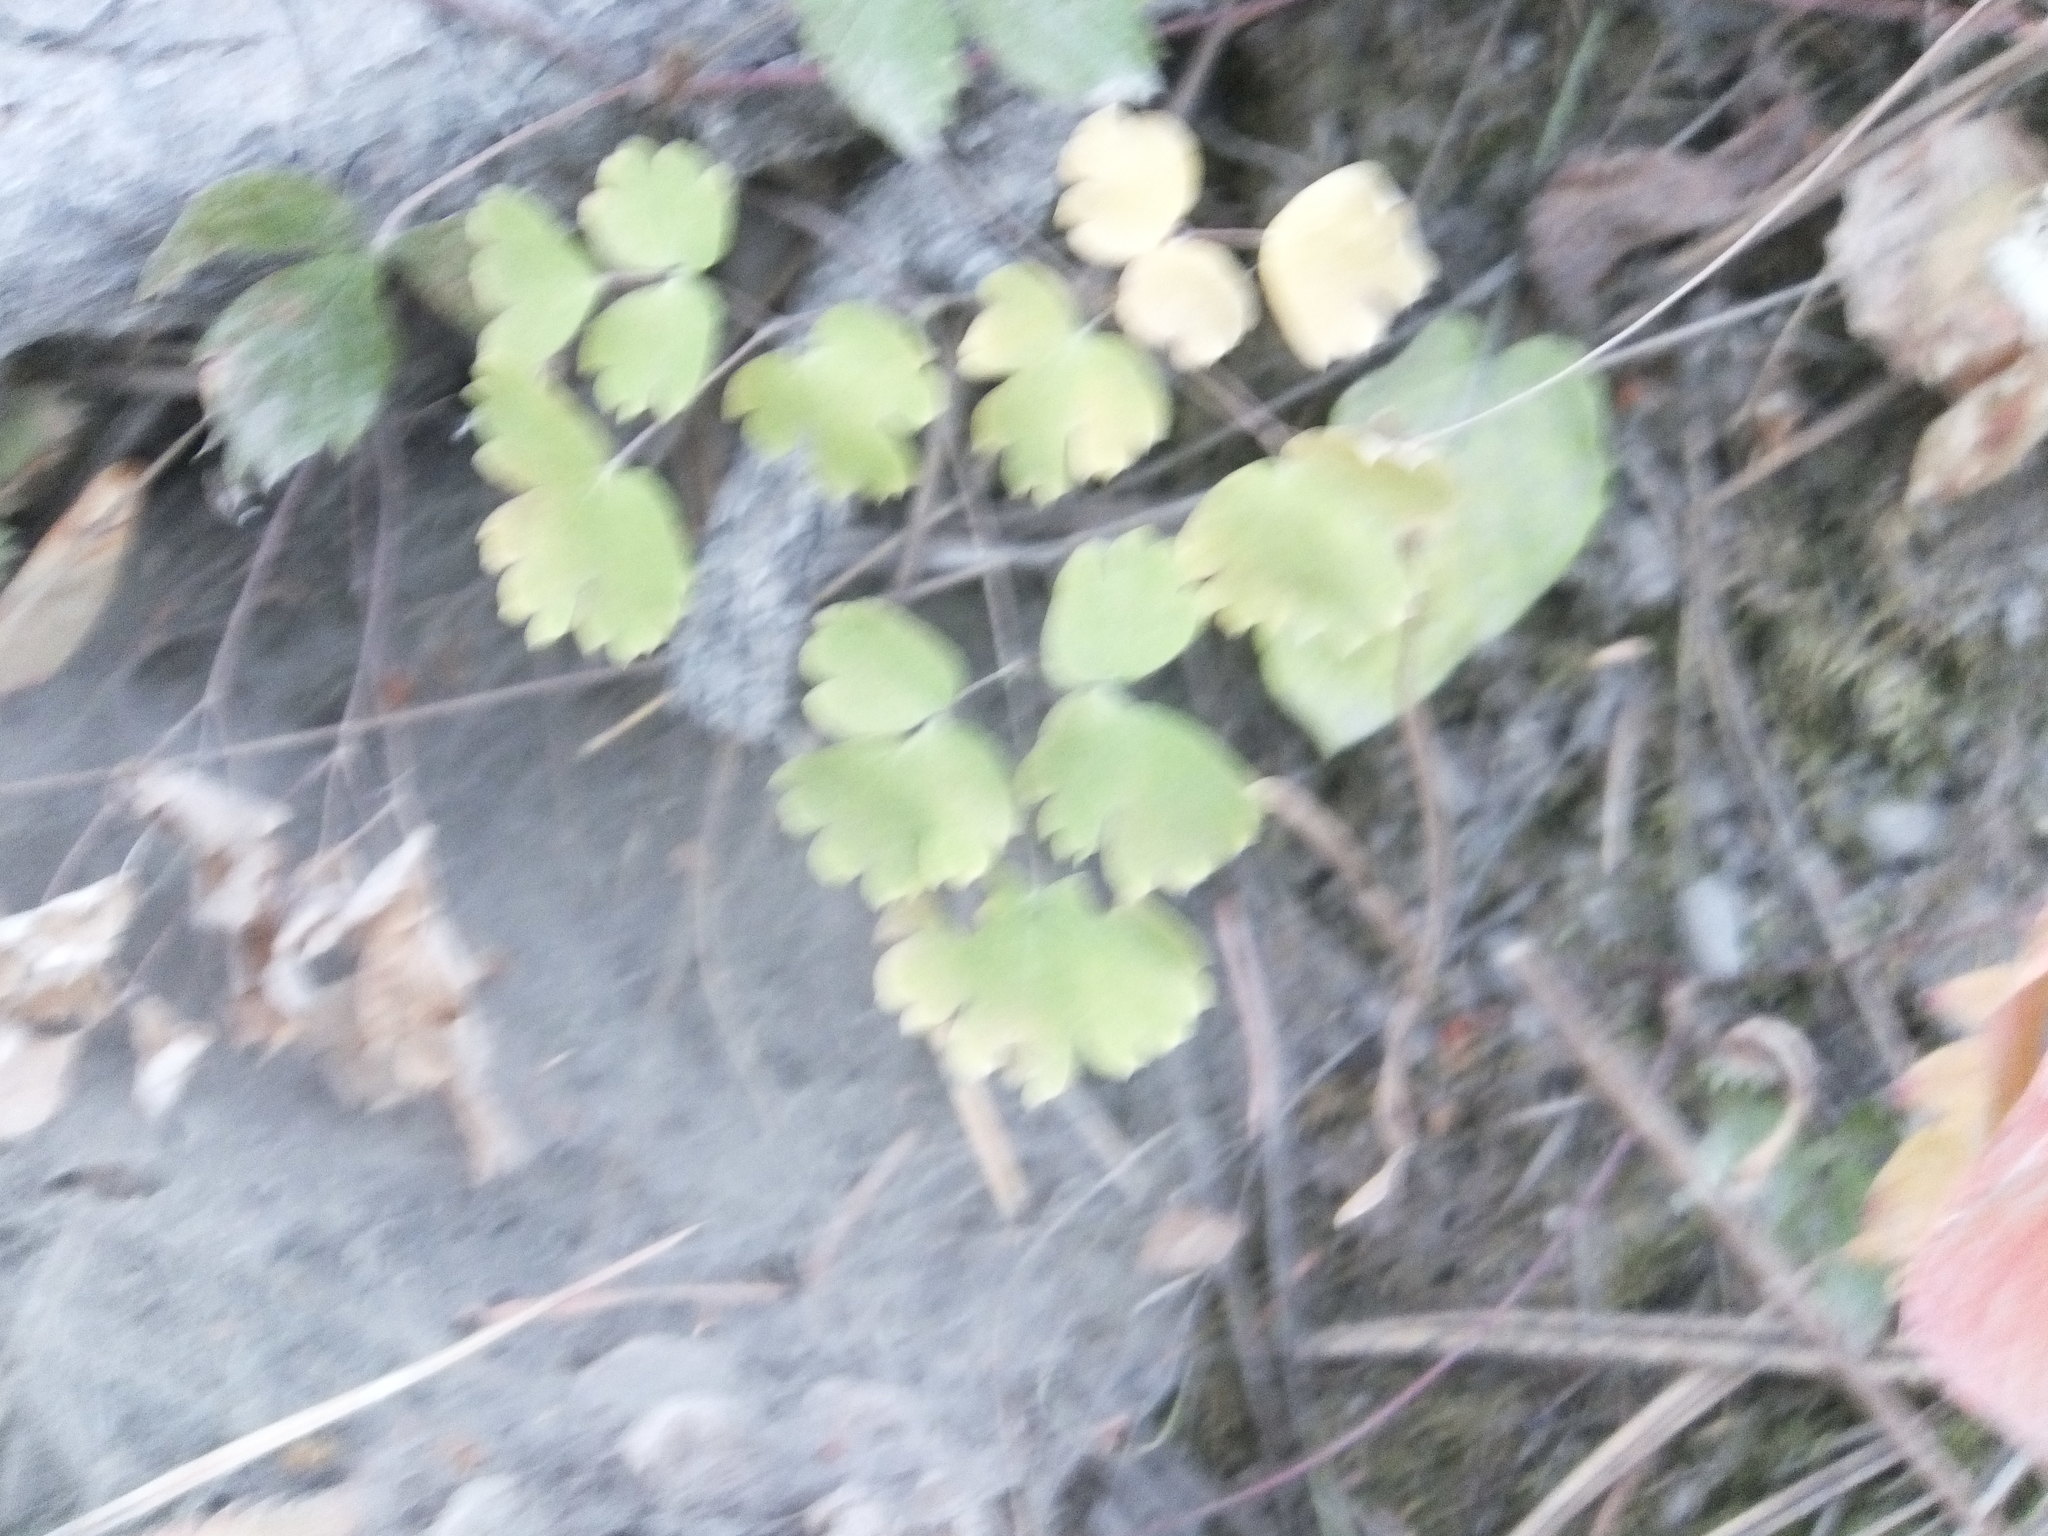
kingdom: Plantae
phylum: Tracheophyta
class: Magnoliopsida
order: Ranunculales
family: Ranunculaceae
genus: Thalictrum
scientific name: Thalictrum occidentale
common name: Western meadow-rue
